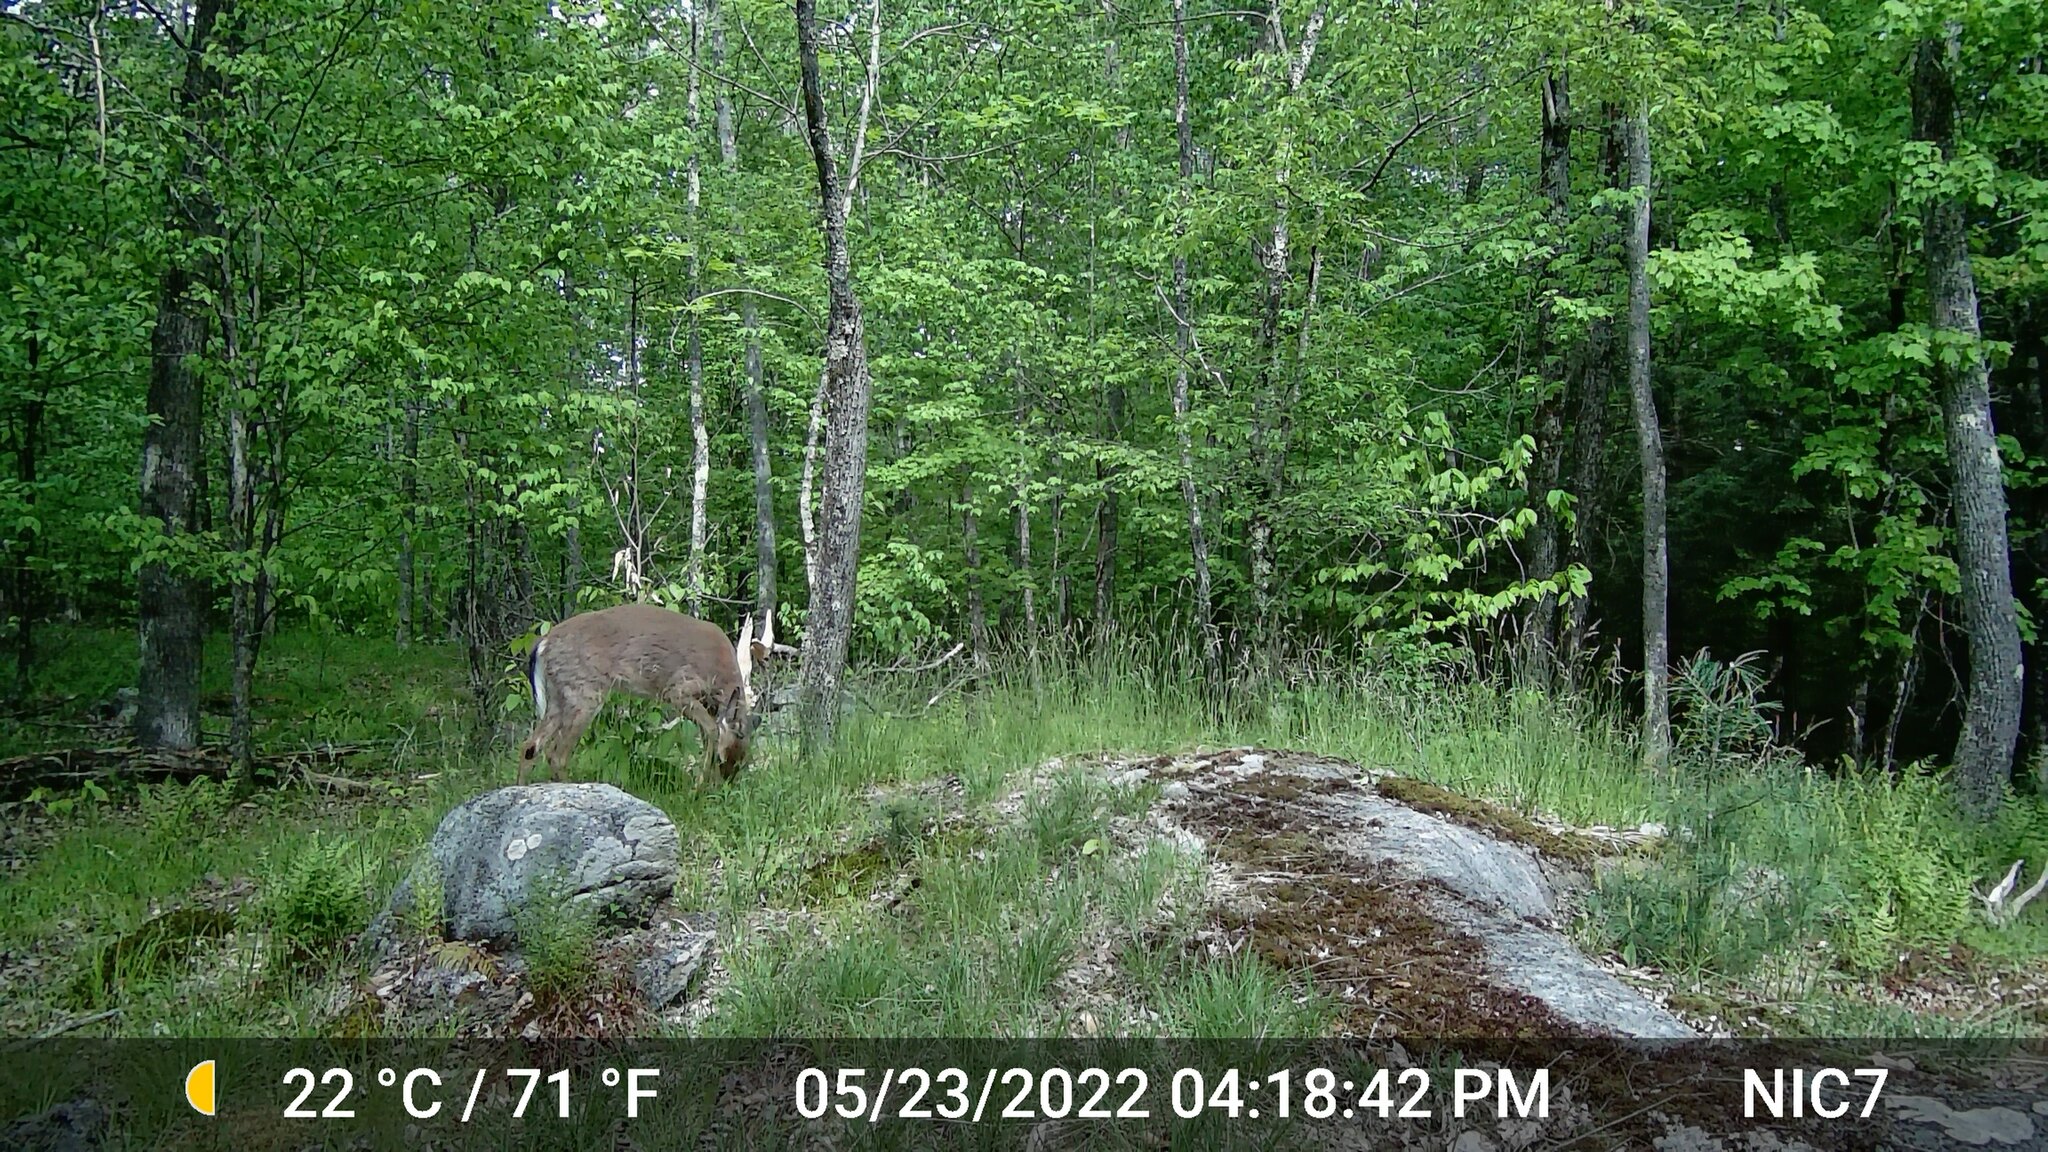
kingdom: Animalia
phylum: Chordata
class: Mammalia
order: Artiodactyla
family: Cervidae
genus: Odocoileus
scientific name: Odocoileus virginianus
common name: White-tailed deer
